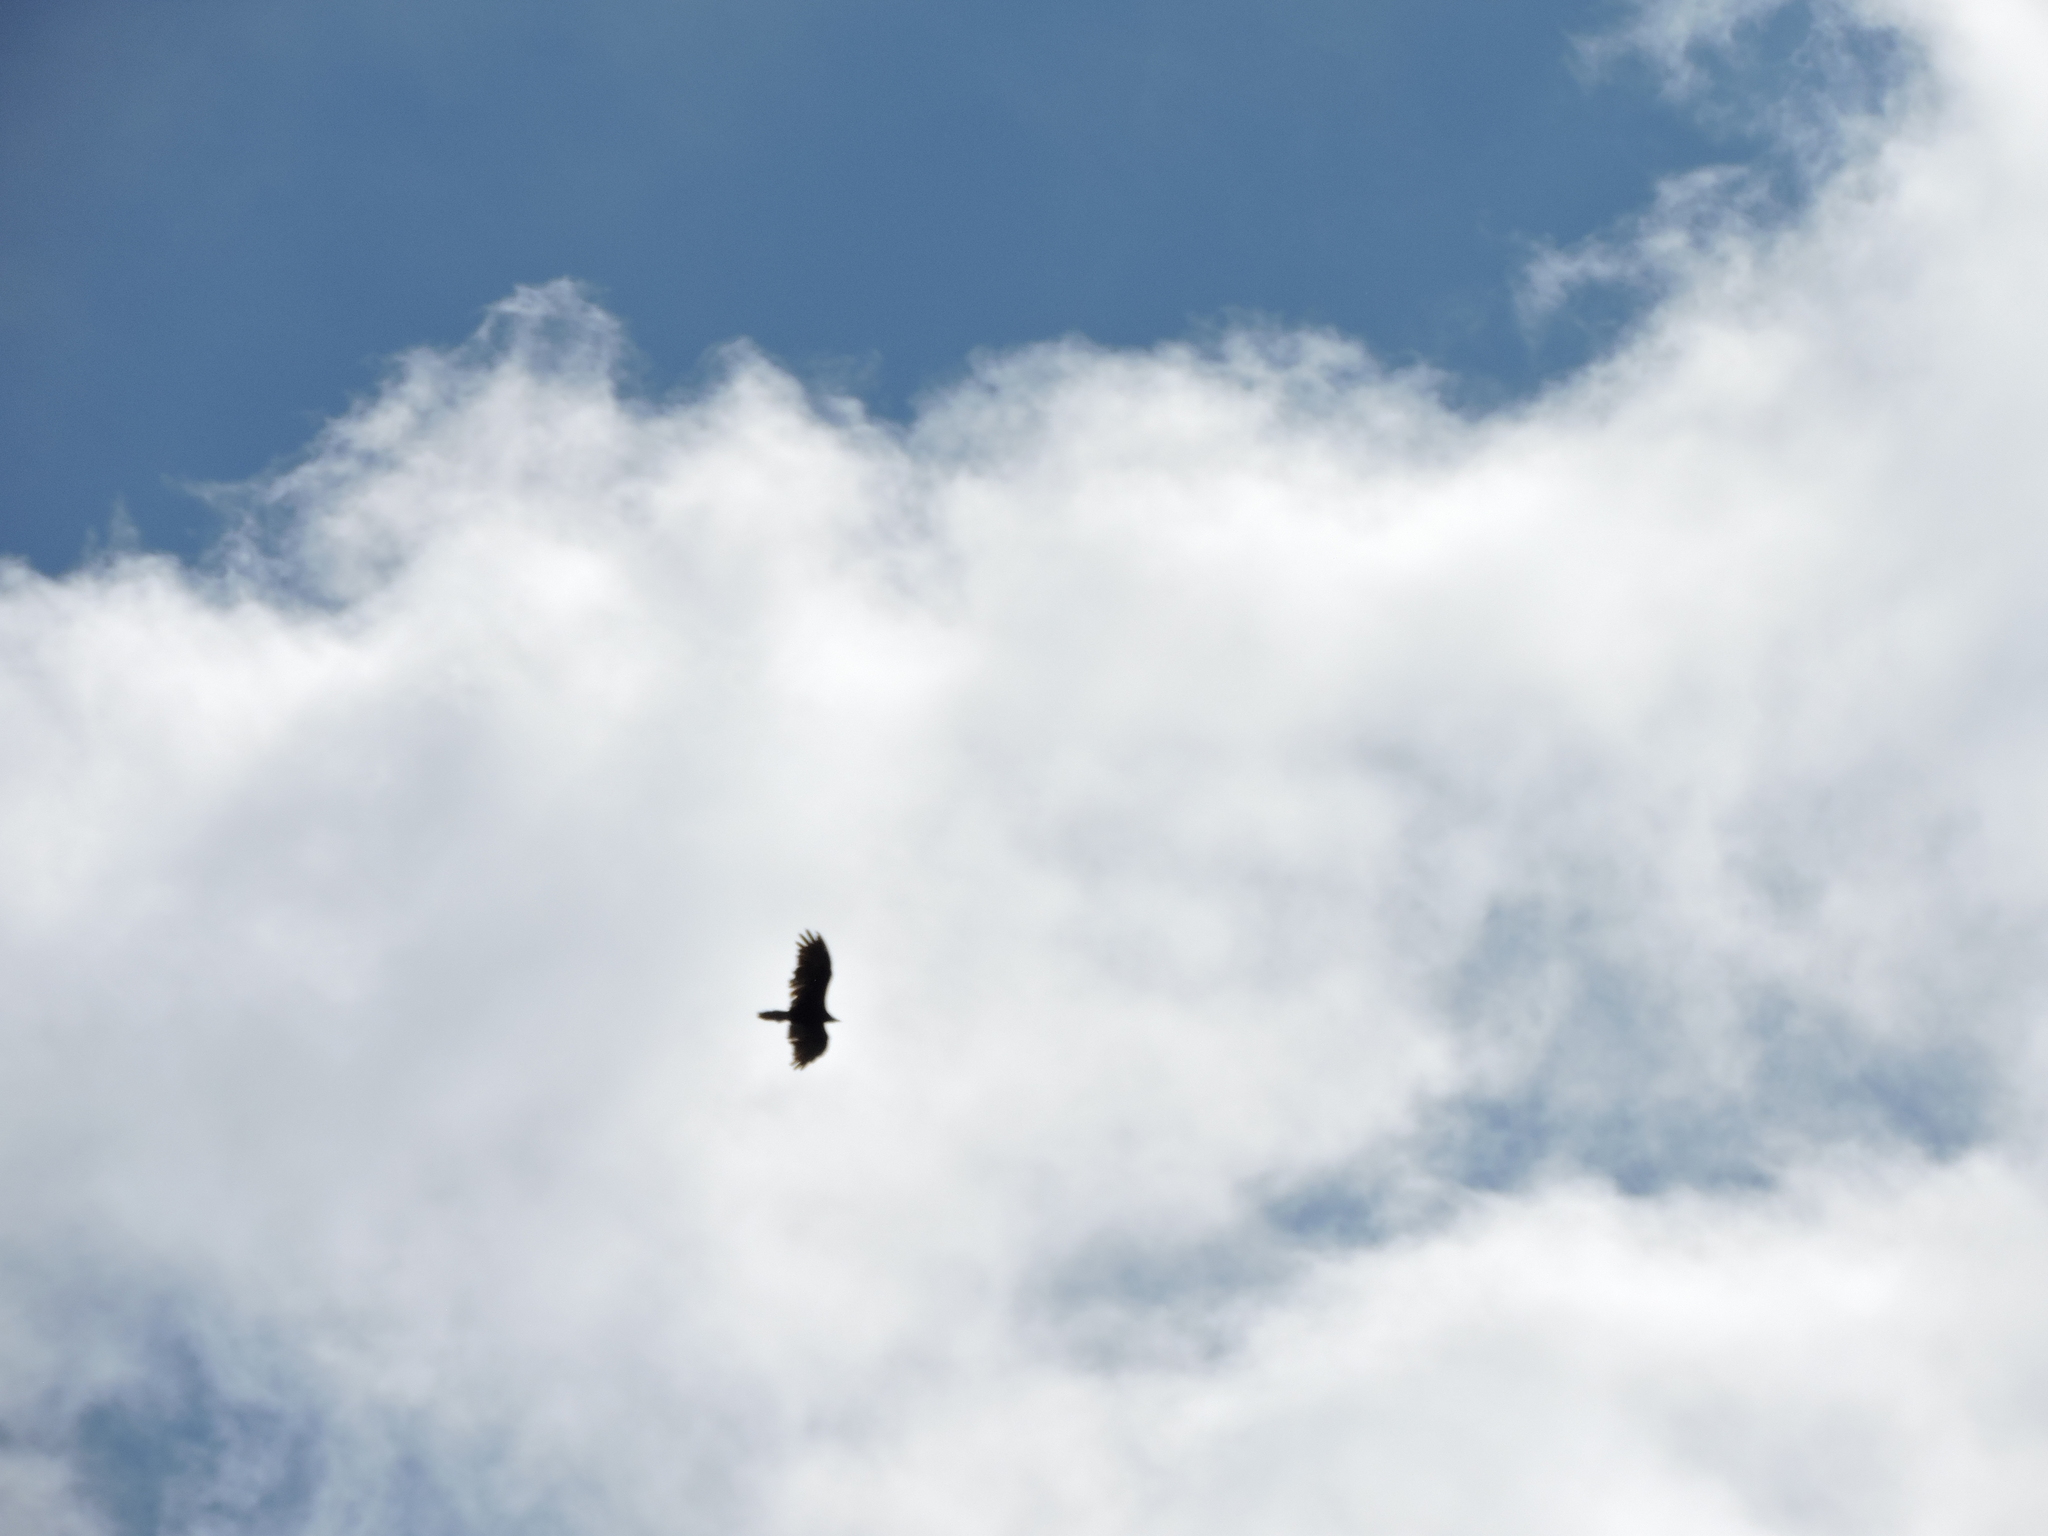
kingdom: Animalia
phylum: Chordata
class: Aves
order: Accipitriformes
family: Cathartidae
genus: Cathartes
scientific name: Cathartes aura
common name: Turkey vulture
